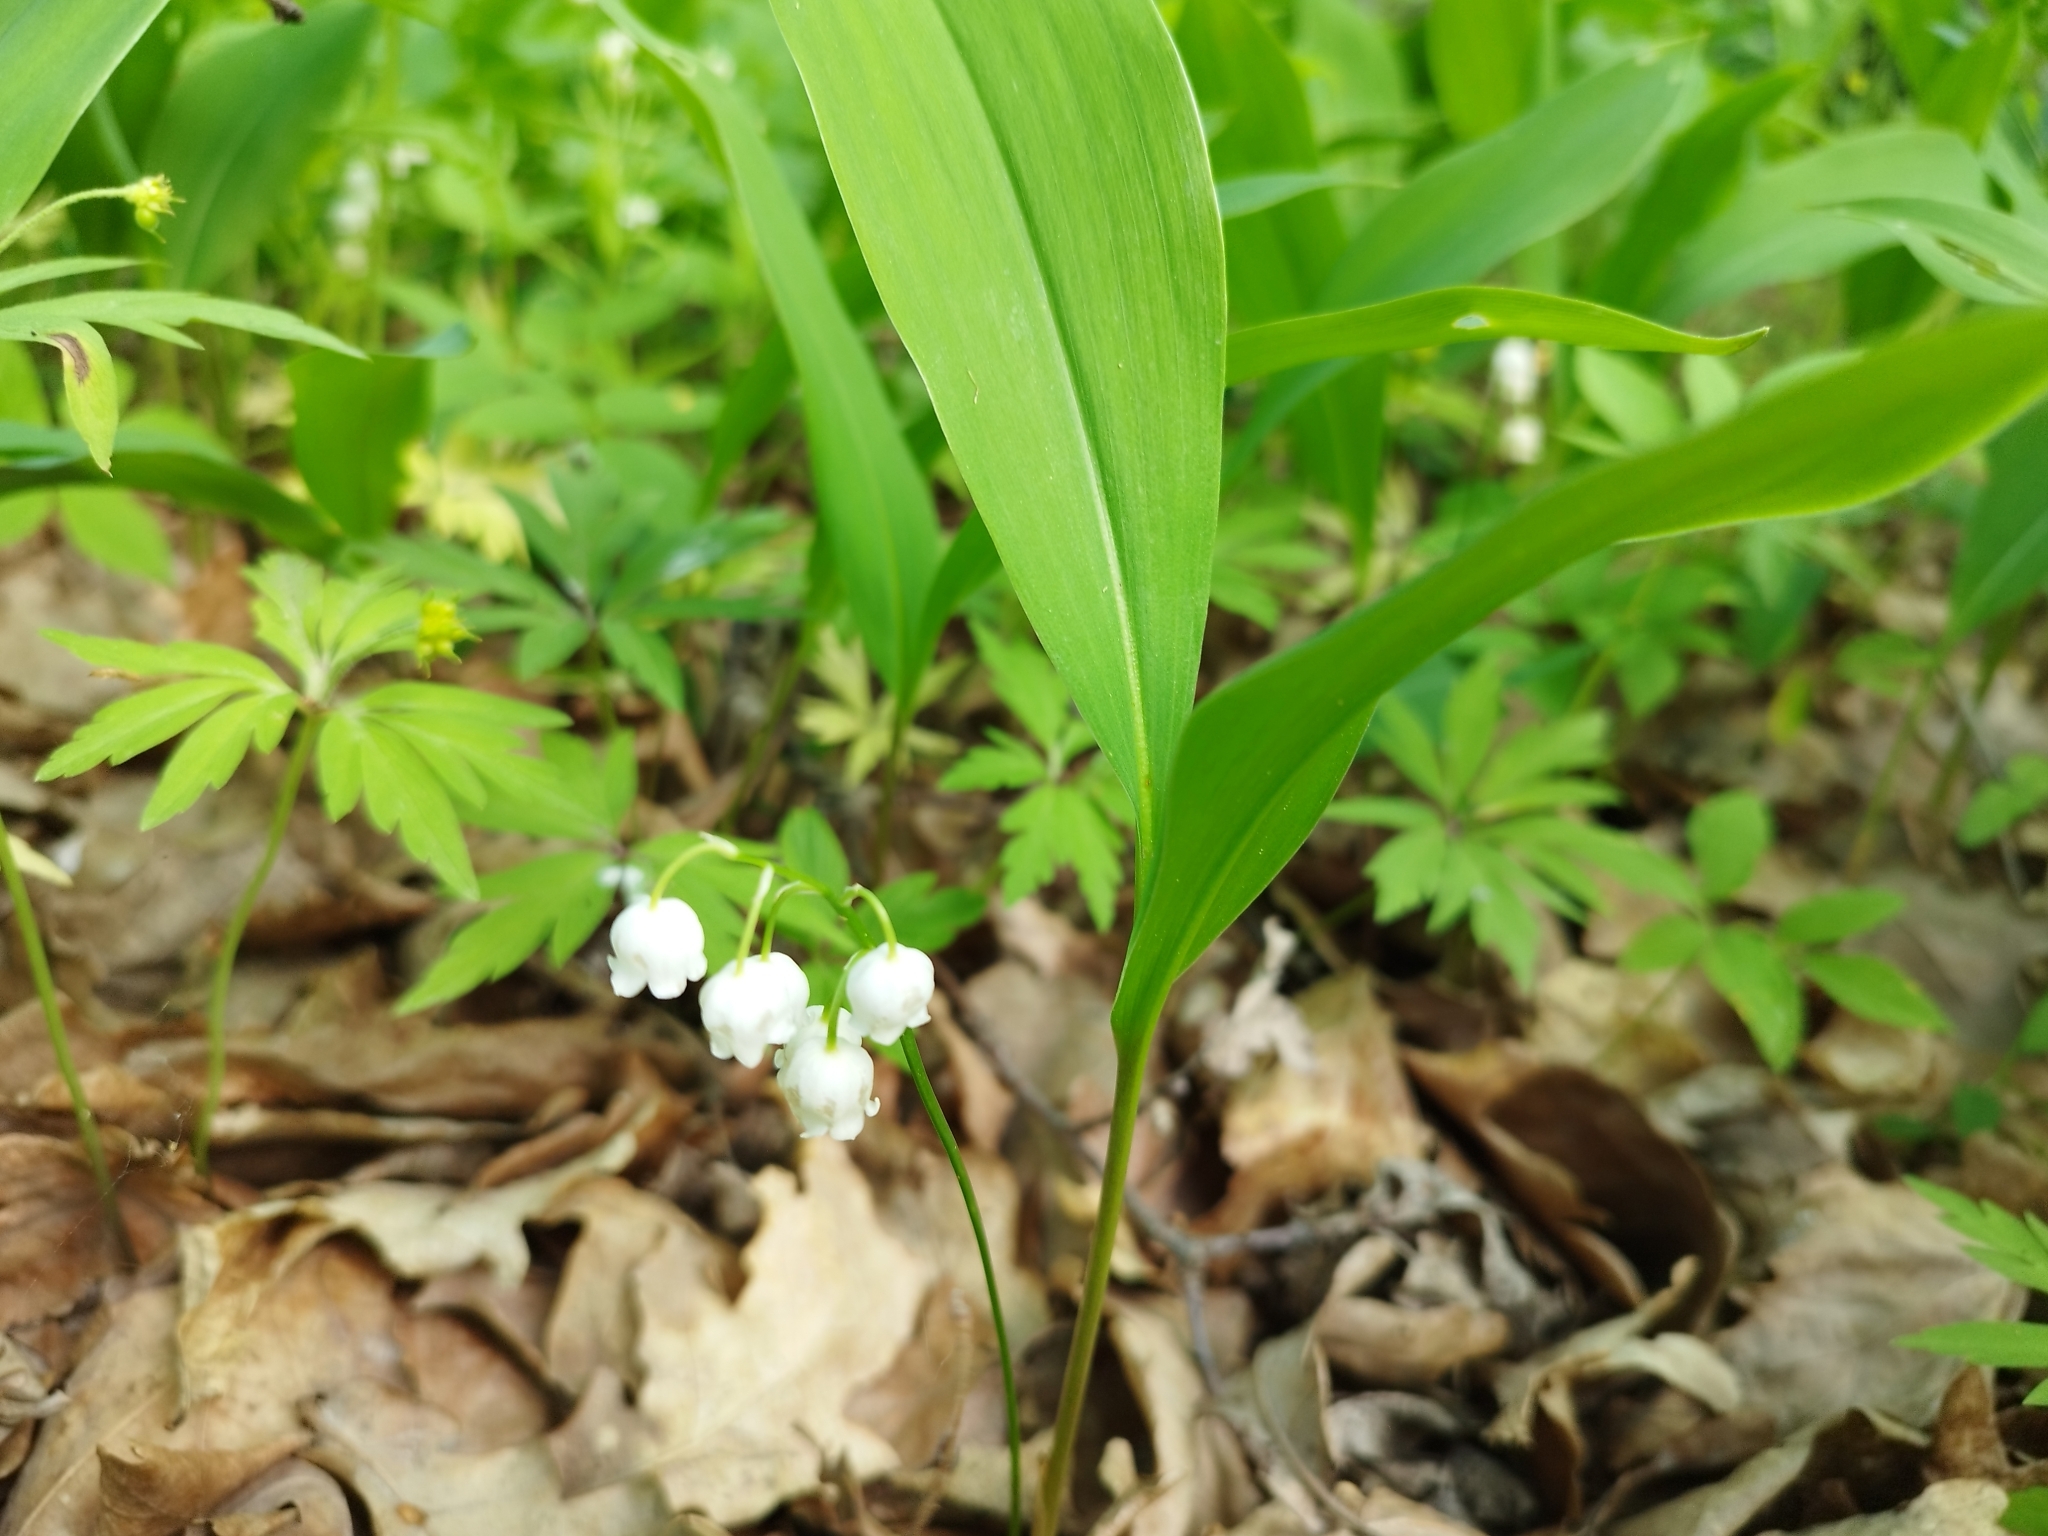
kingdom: Plantae
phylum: Tracheophyta
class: Liliopsida
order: Asparagales
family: Asparagaceae
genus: Convallaria
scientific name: Convallaria majalis
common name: Lily-of-the-valley
